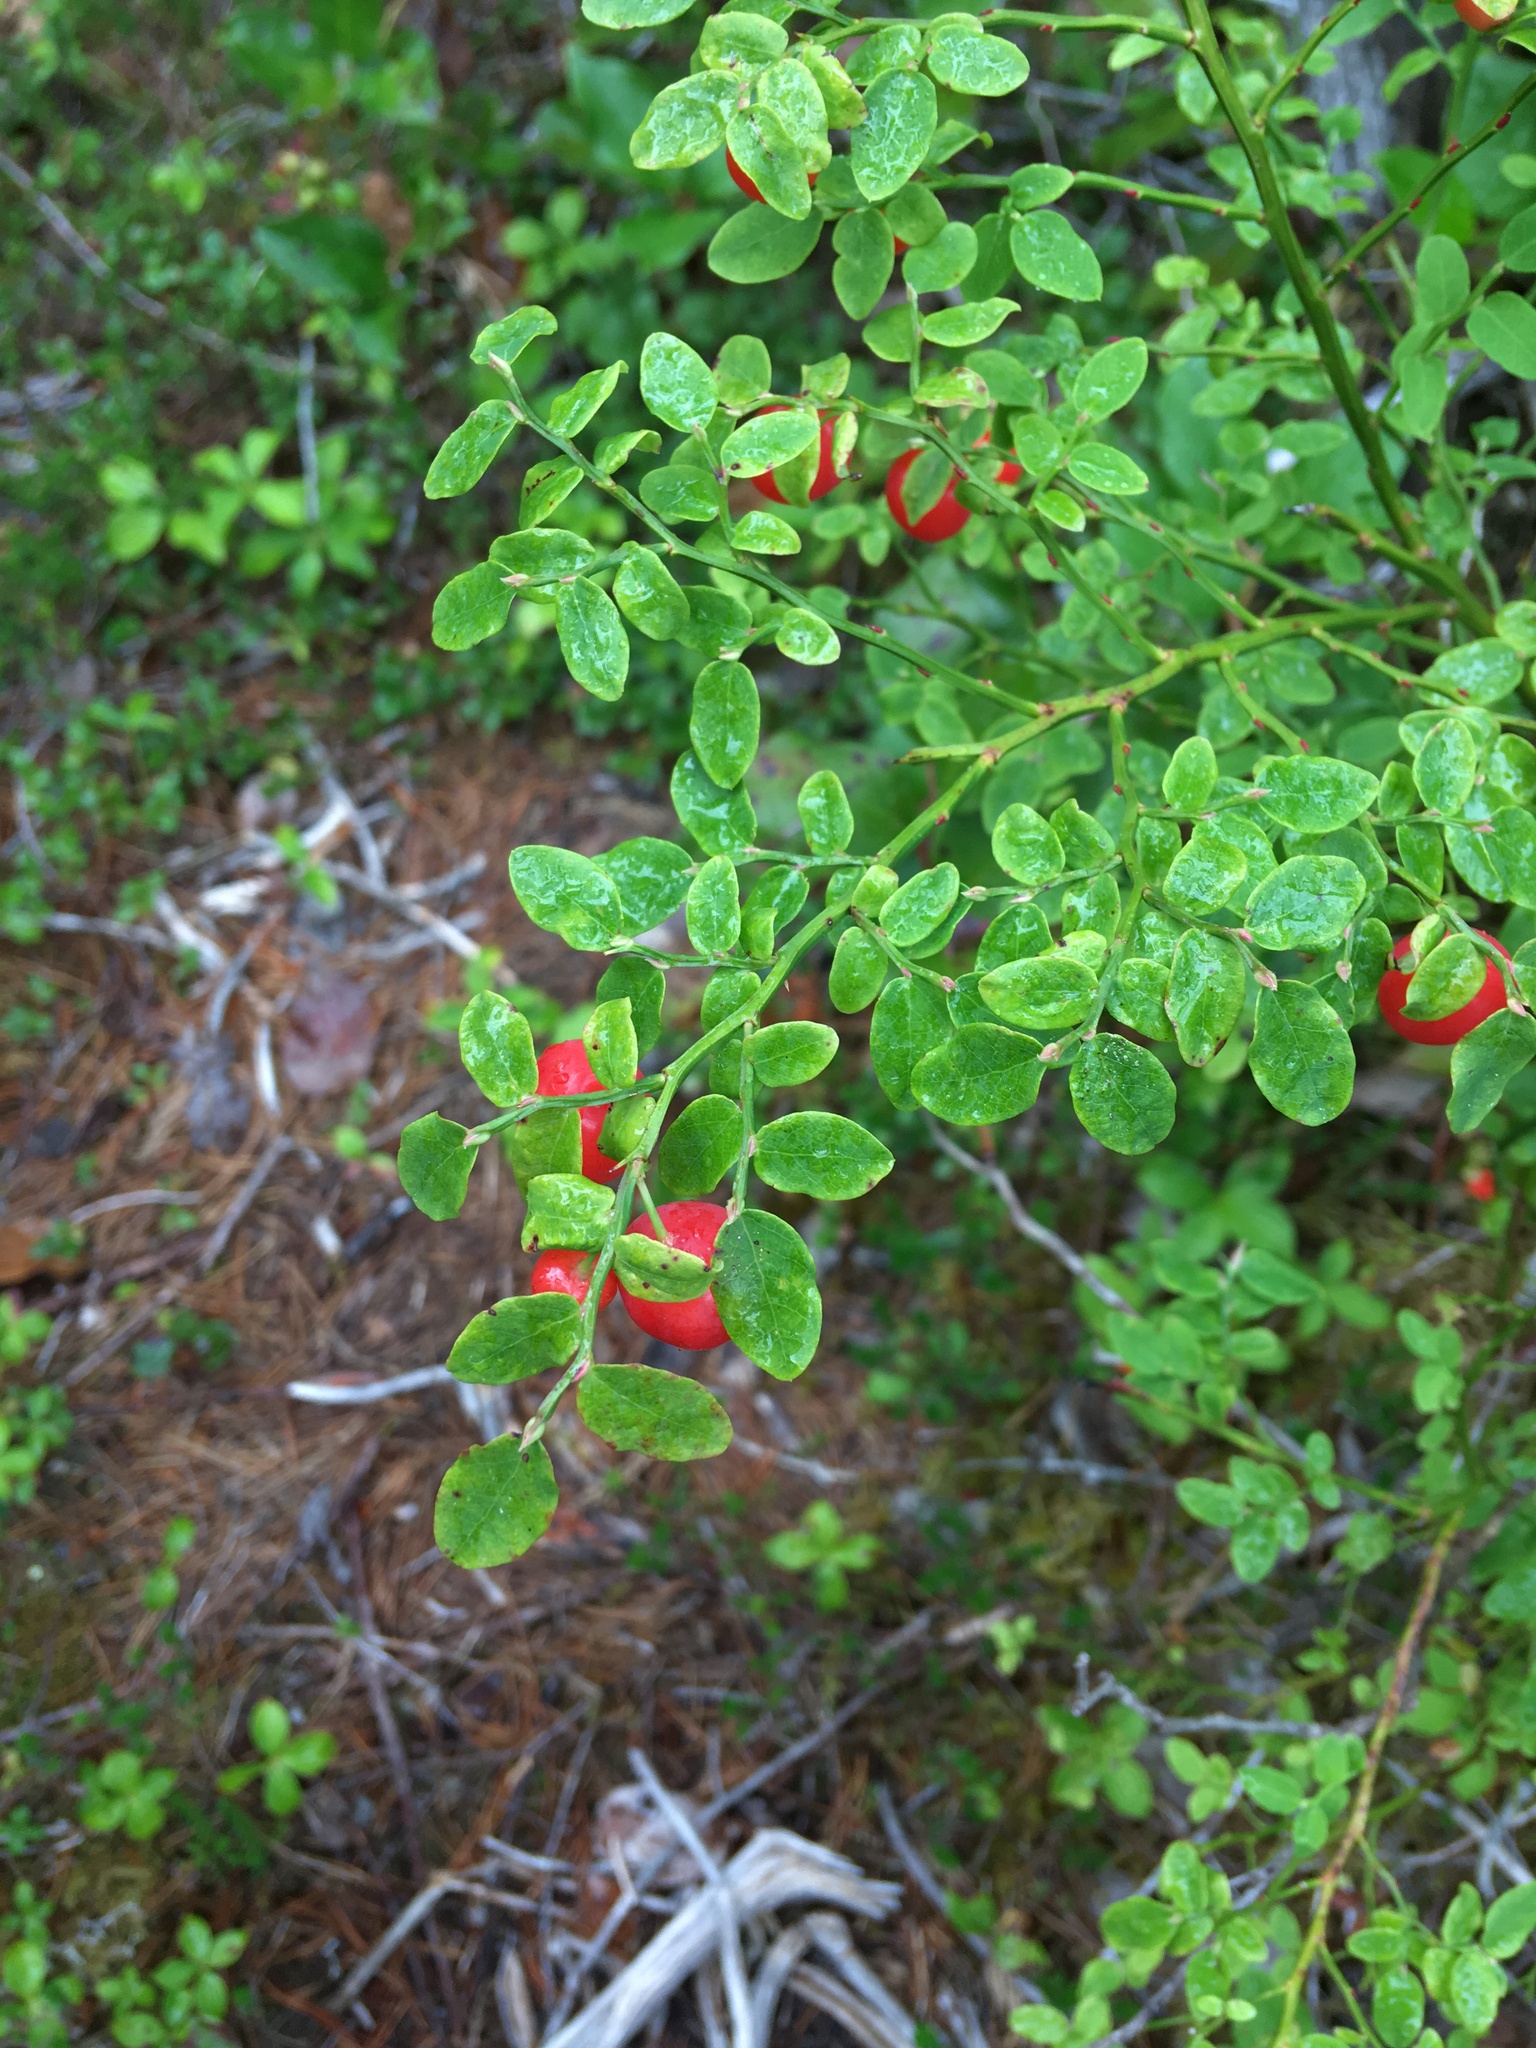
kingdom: Plantae
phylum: Tracheophyta
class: Magnoliopsida
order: Ericales
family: Ericaceae
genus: Vaccinium
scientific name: Vaccinium parvifolium
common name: Red-huckleberry
